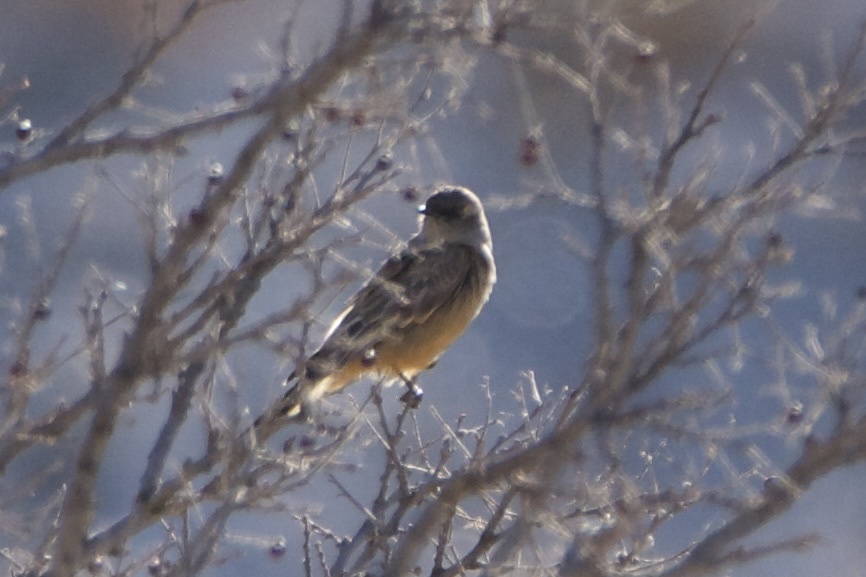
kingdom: Animalia
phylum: Chordata
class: Aves
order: Passeriformes
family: Tyrannidae
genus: Sayornis
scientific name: Sayornis saya
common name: Say's phoebe
